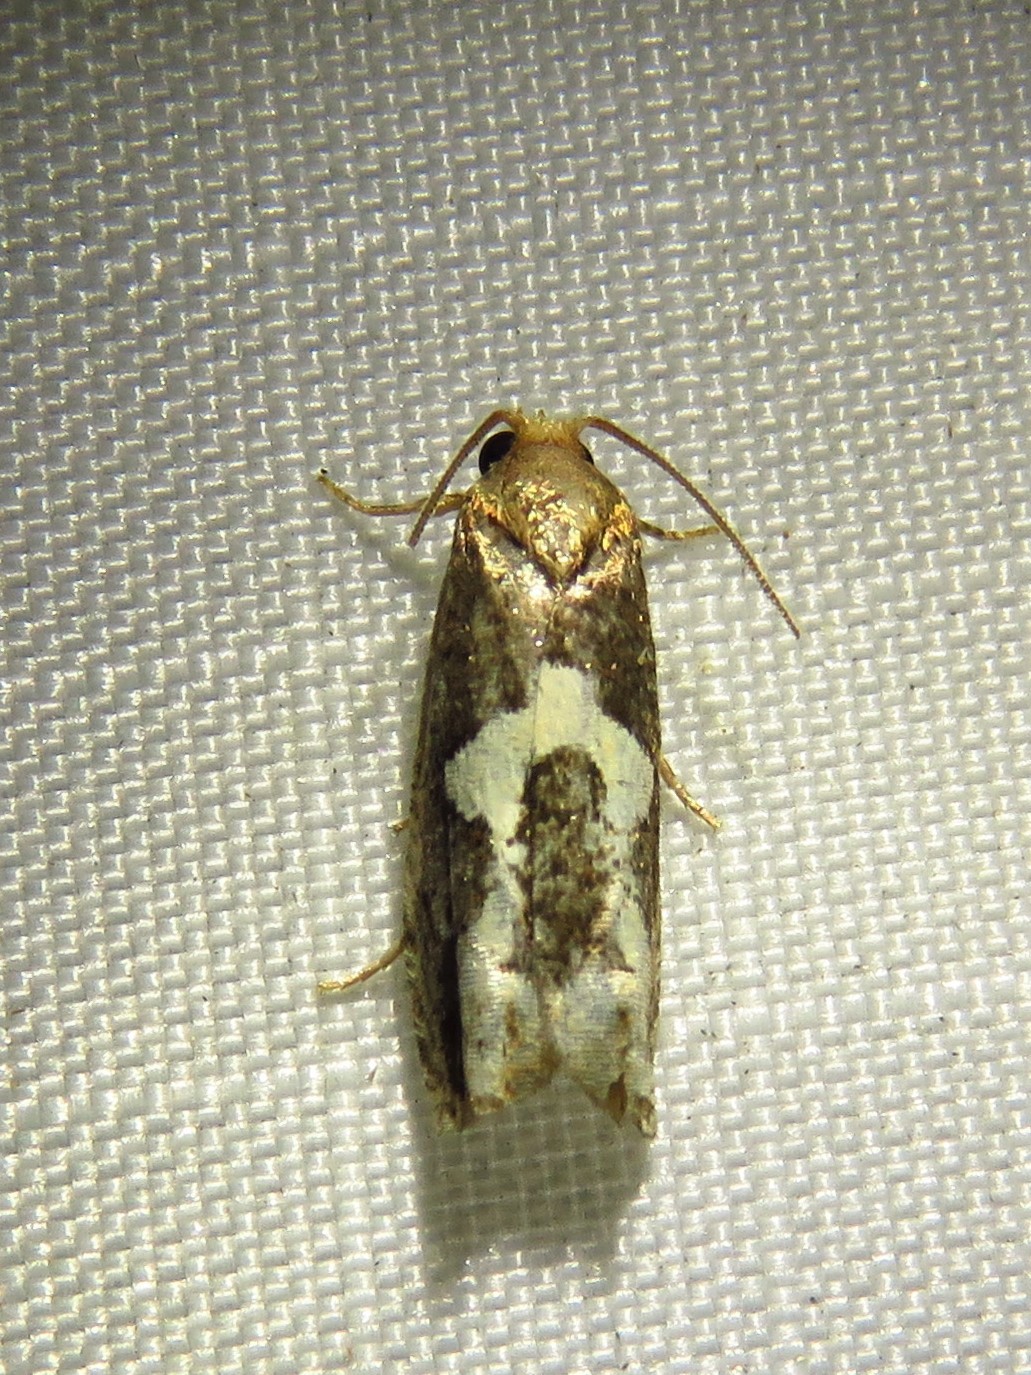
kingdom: Animalia
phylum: Arthropoda
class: Insecta
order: Lepidoptera
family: Tortricidae
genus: Epiblema
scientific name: Epiblema otiosana
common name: Bidens borer moth
